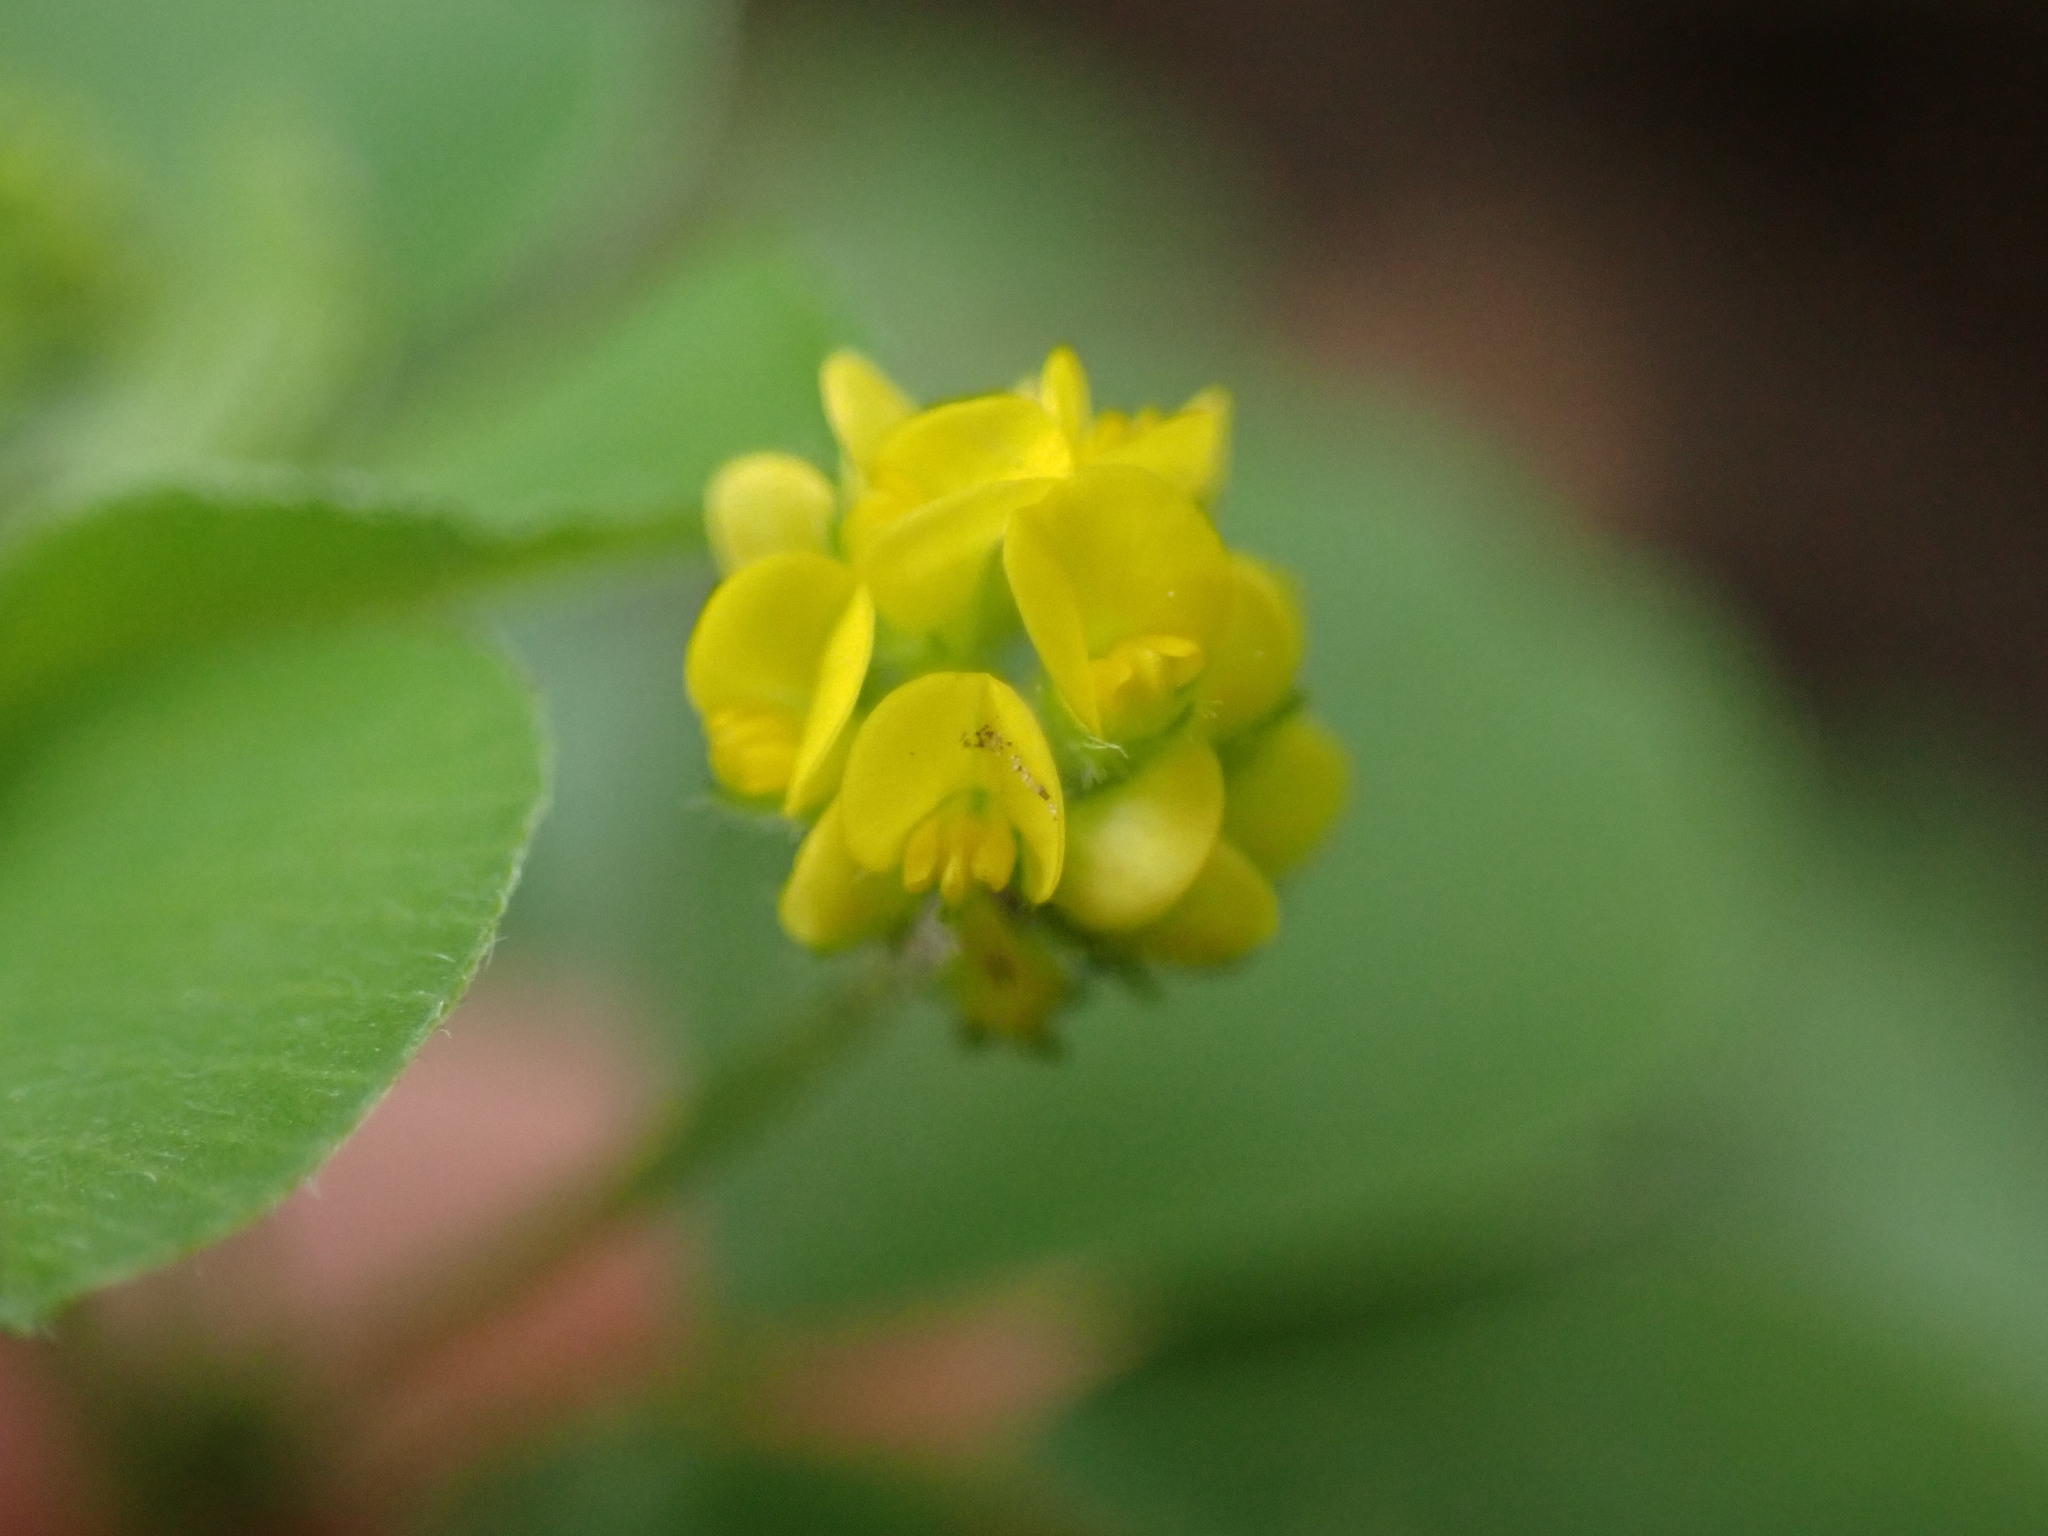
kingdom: Plantae
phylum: Tracheophyta
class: Magnoliopsida
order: Fabales
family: Fabaceae
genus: Medicago
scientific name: Medicago lupulina
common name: Black medick
